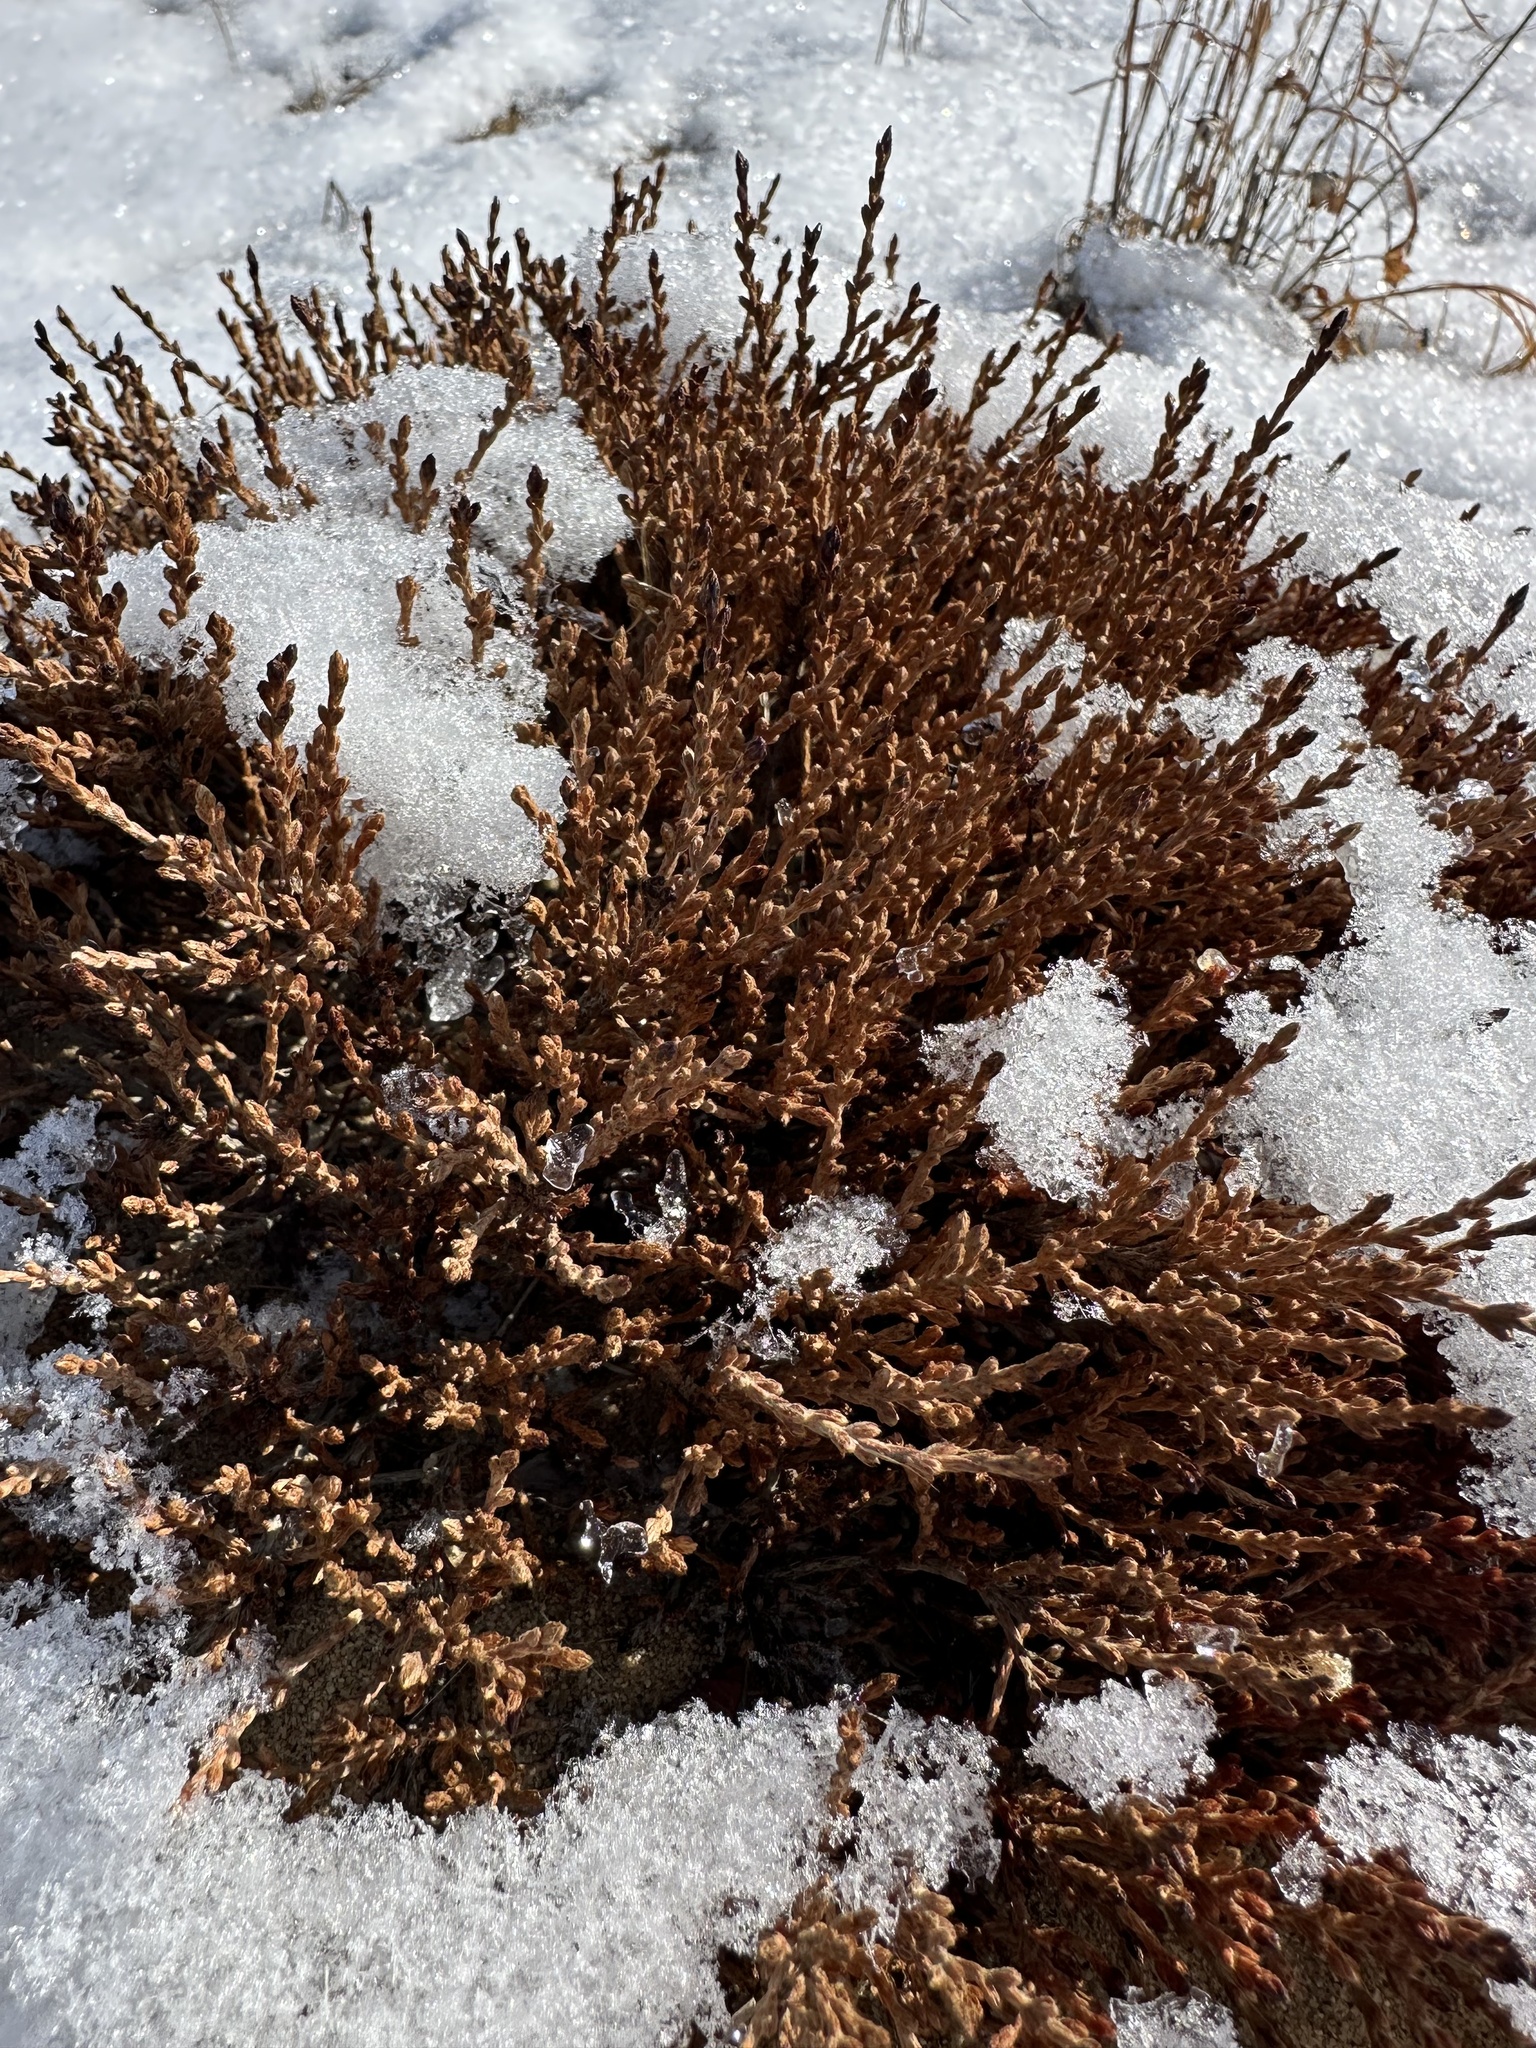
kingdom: Plantae
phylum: Tracheophyta
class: Magnoliopsida
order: Malvales
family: Cistaceae
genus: Hudsonia
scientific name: Hudsonia tomentosa
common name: Beach-heath
